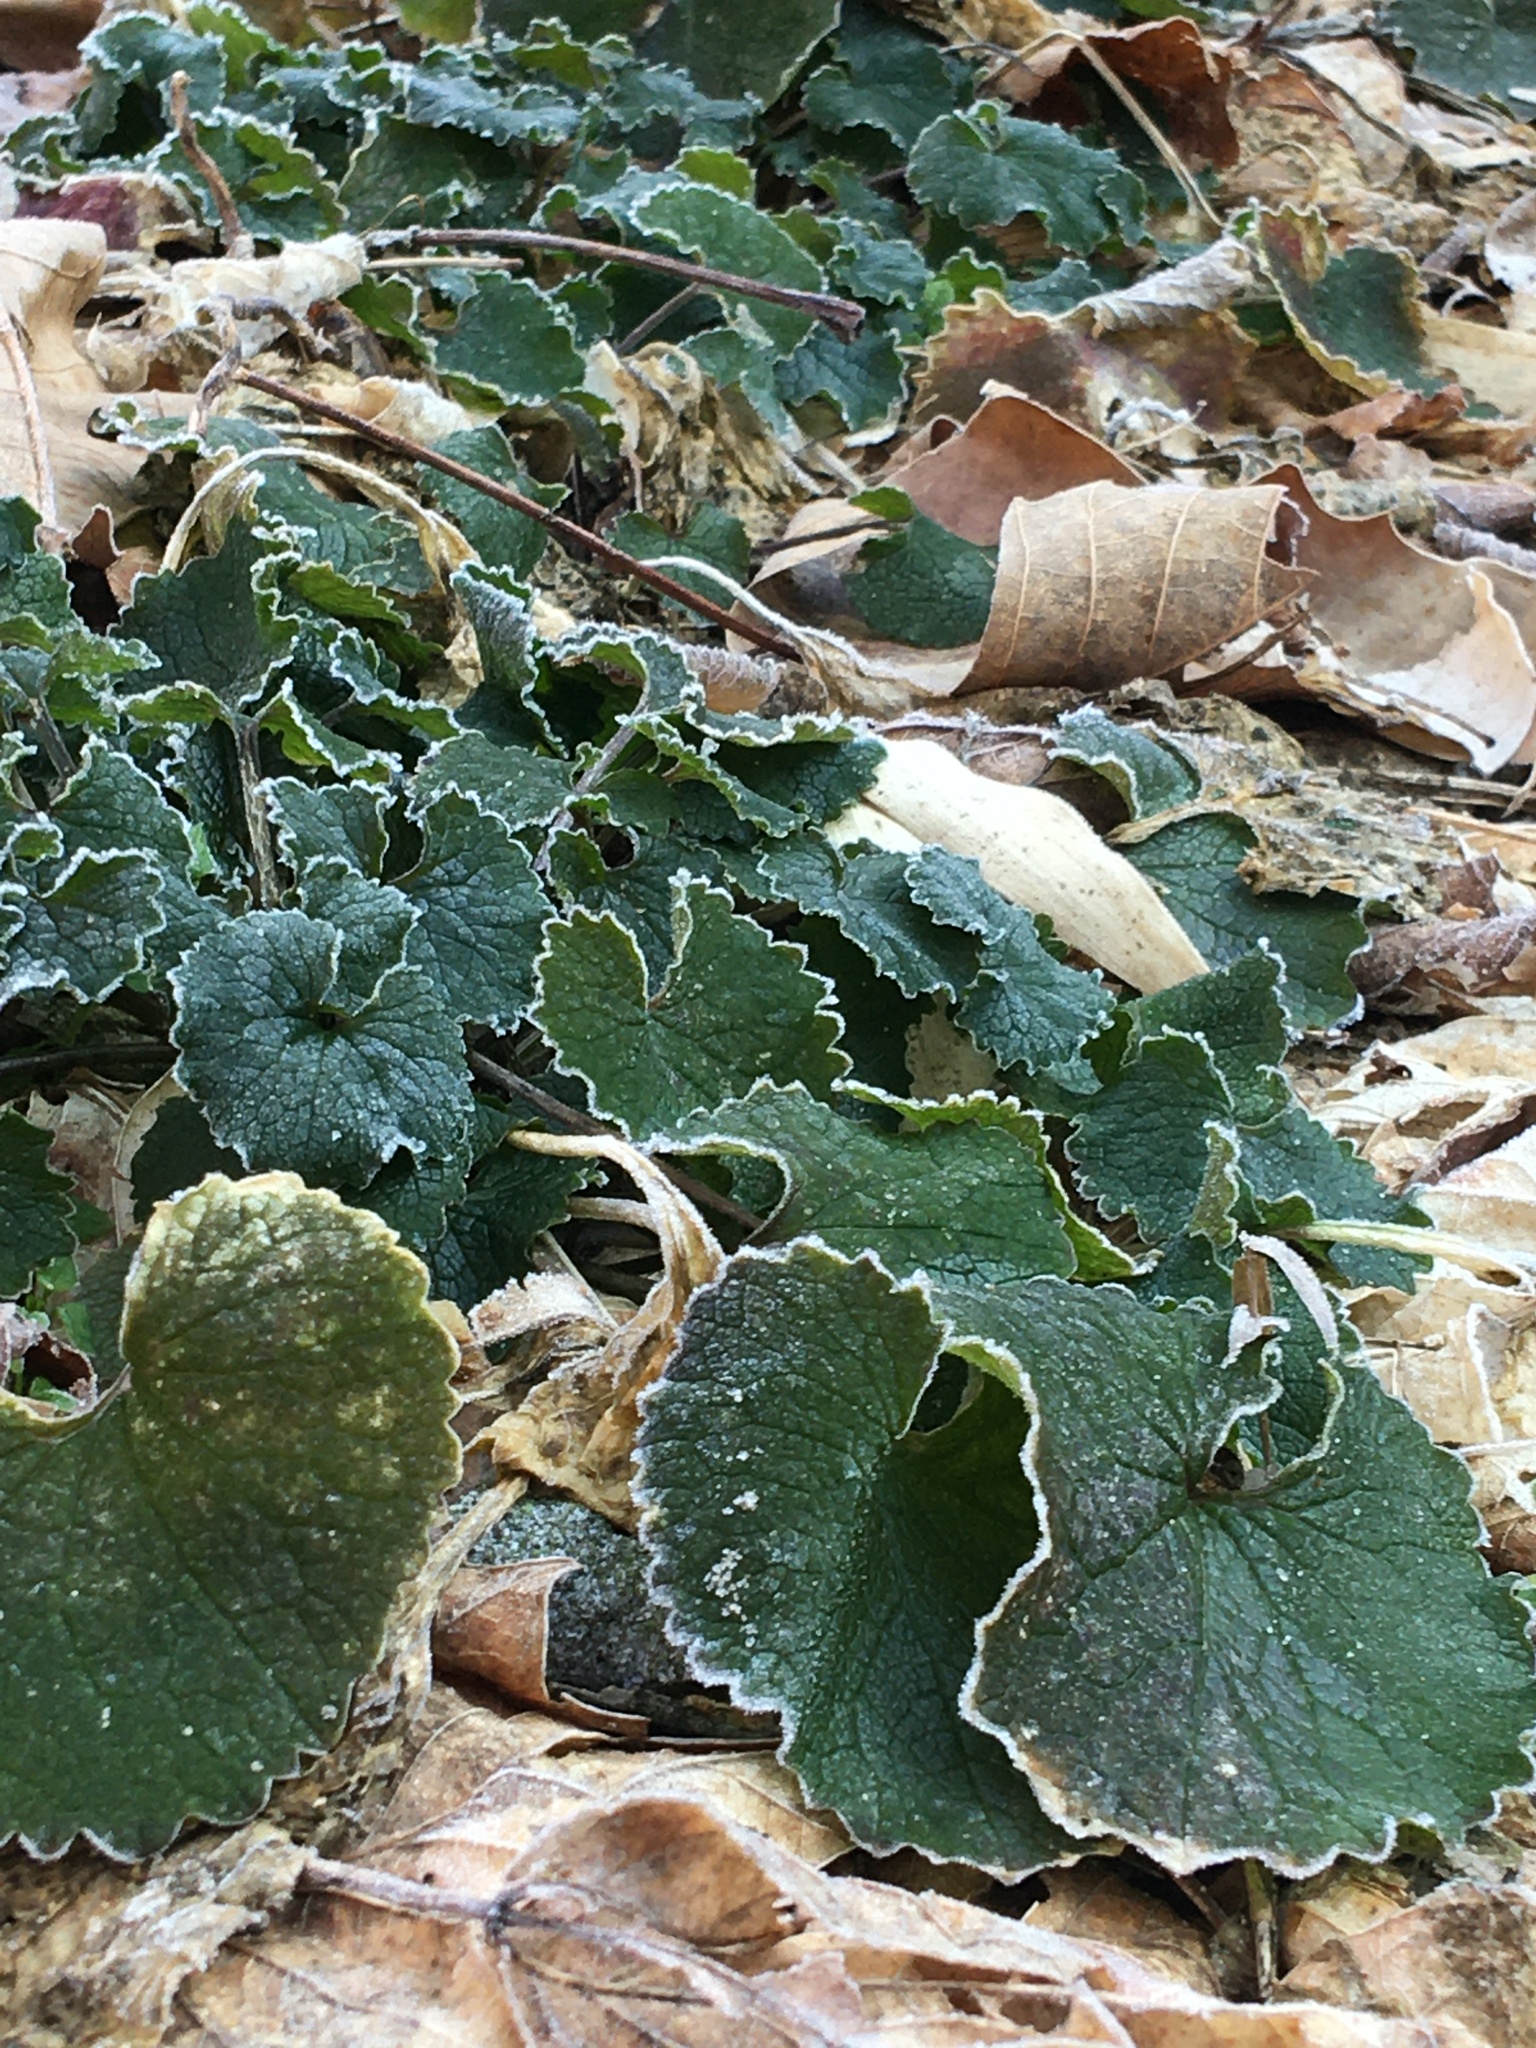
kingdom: Plantae
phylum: Tracheophyta
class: Magnoliopsida
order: Brassicales
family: Brassicaceae
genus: Alliaria
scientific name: Alliaria petiolata
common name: Garlic mustard
